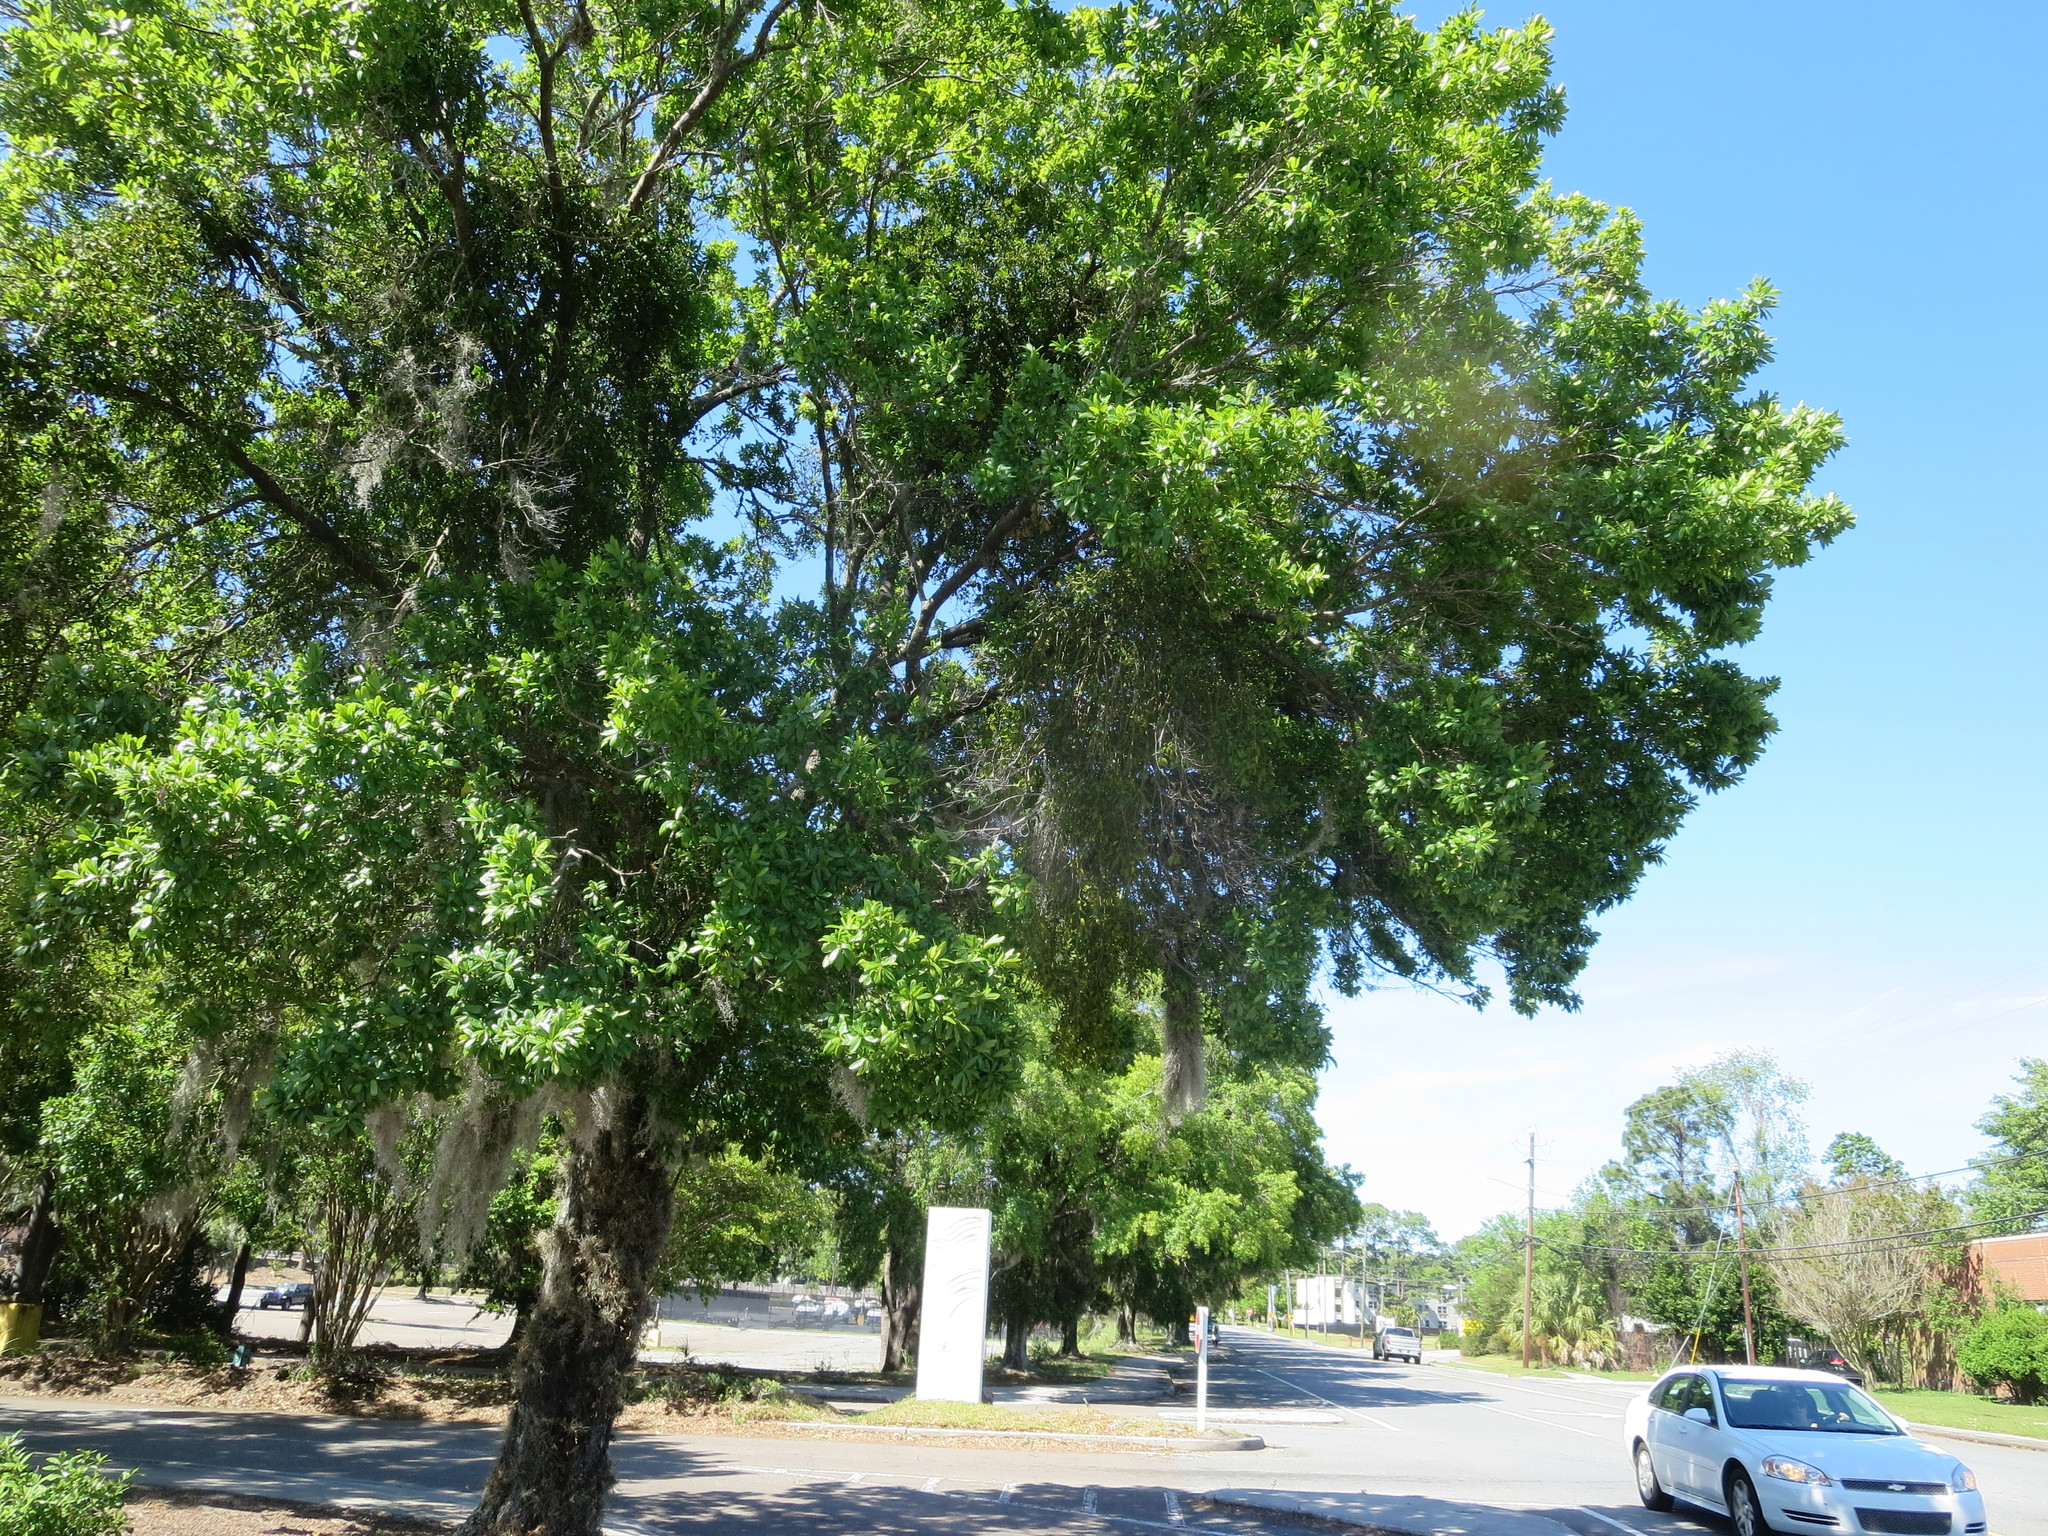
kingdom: Plantae
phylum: Tracheophyta
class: Magnoliopsida
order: Santalales
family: Viscaceae
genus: Phoradendron
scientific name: Phoradendron leucarpum
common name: Pacific mistletoe
